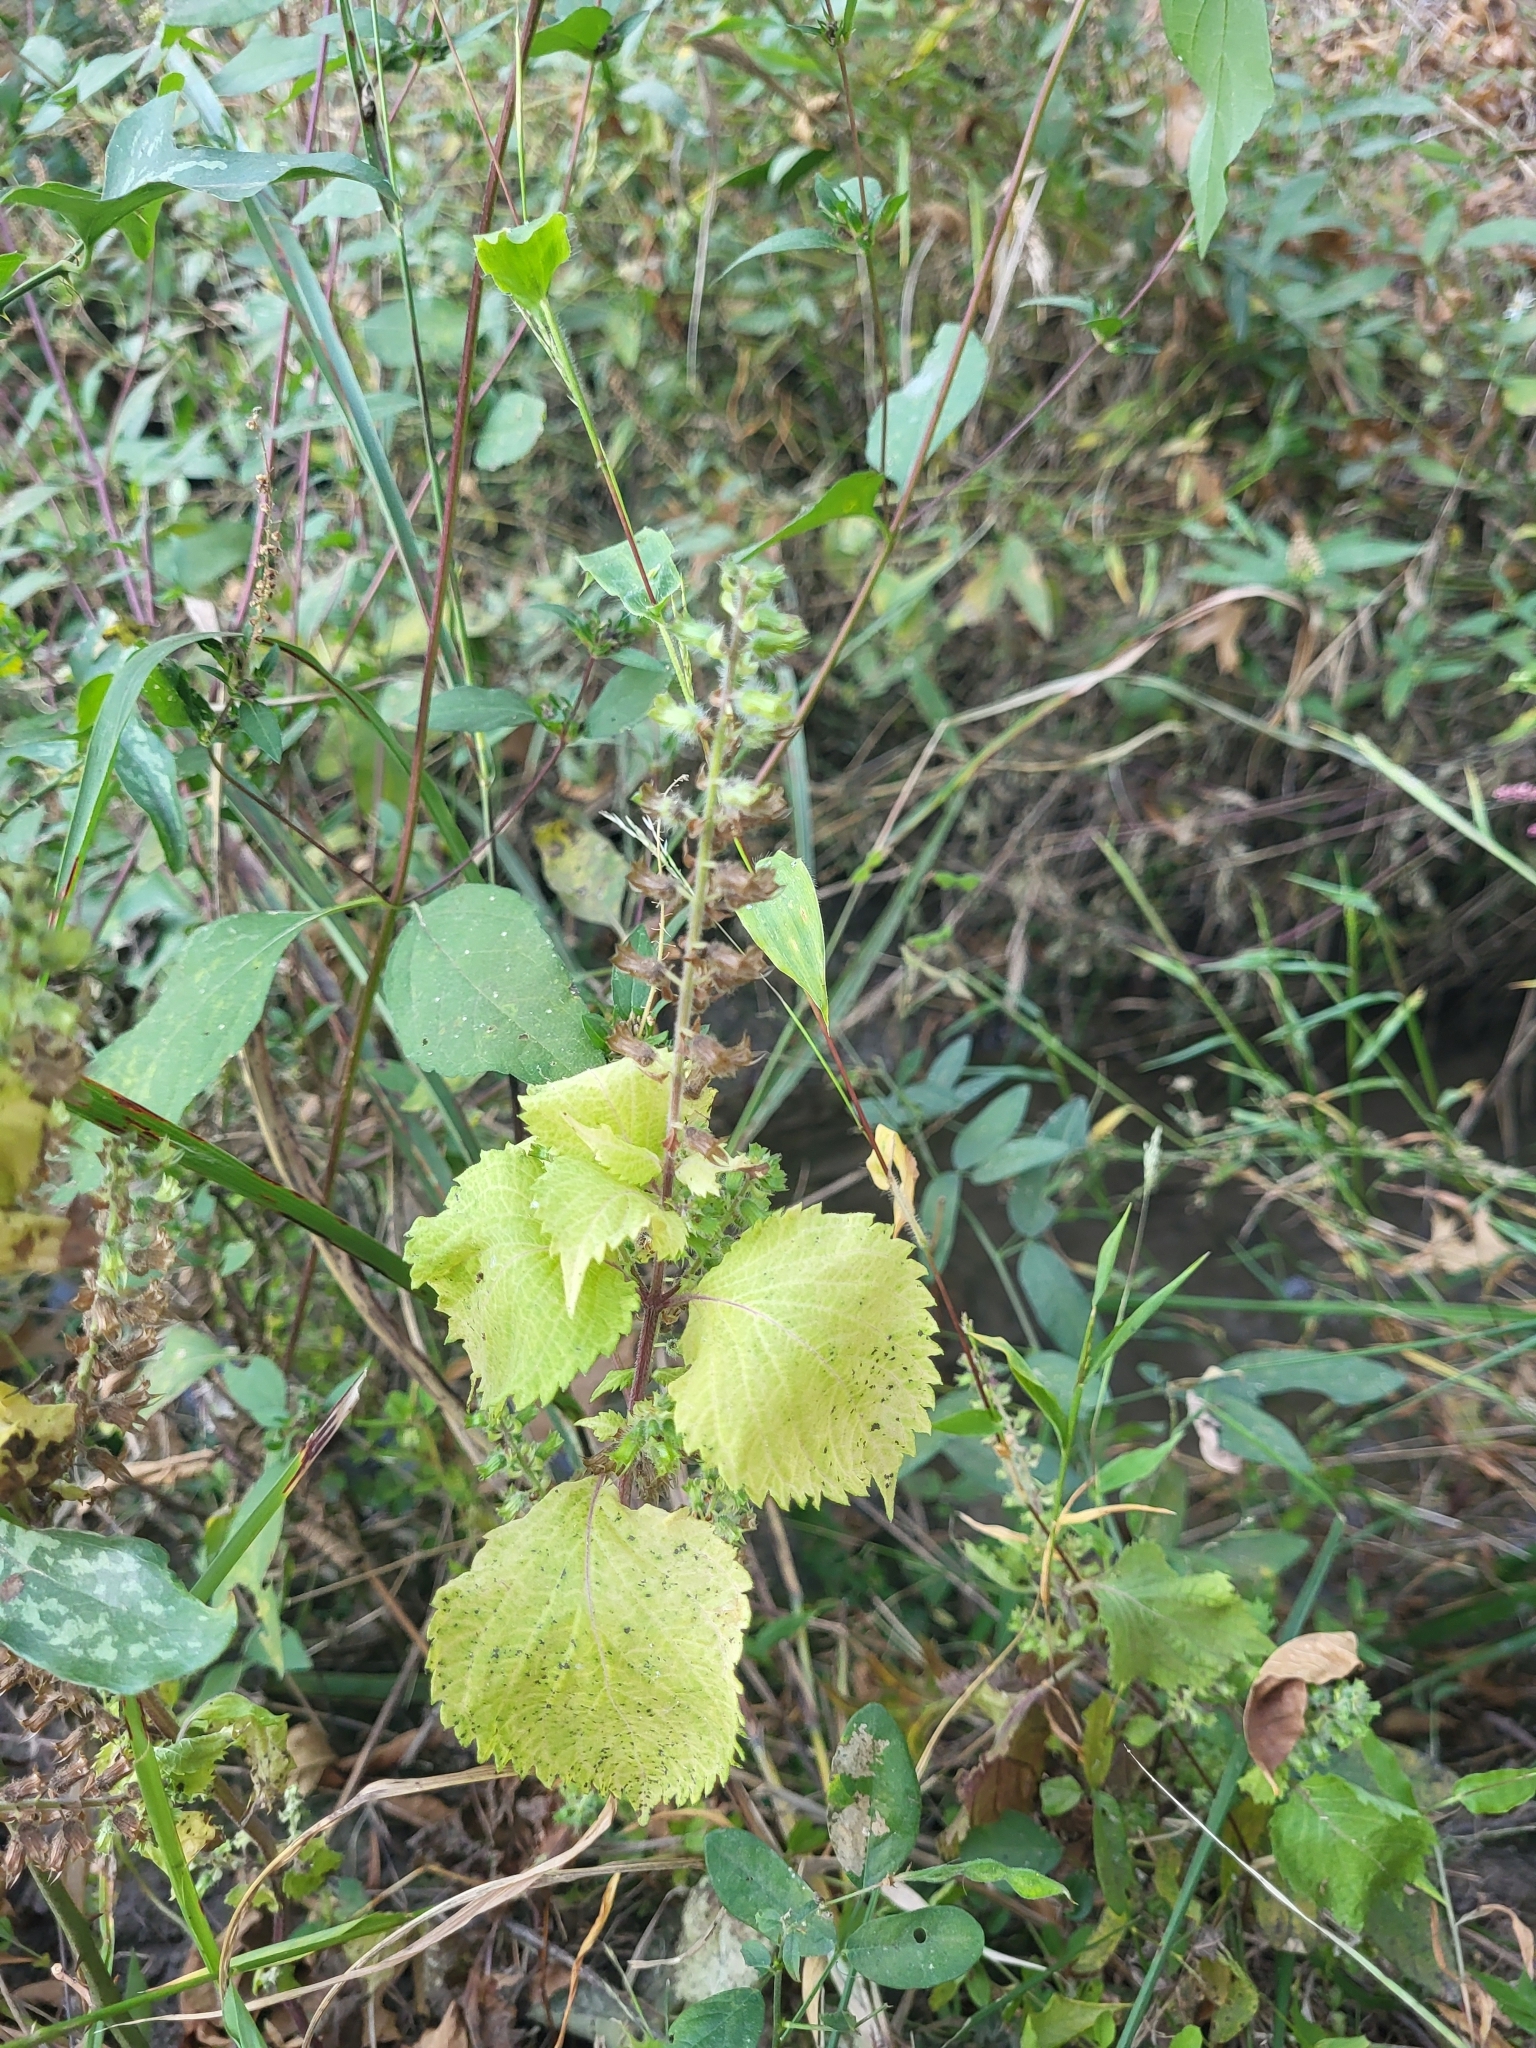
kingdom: Plantae
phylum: Tracheophyta
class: Magnoliopsida
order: Lamiales
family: Lamiaceae
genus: Perilla
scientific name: Perilla frutescens
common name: Perilla
